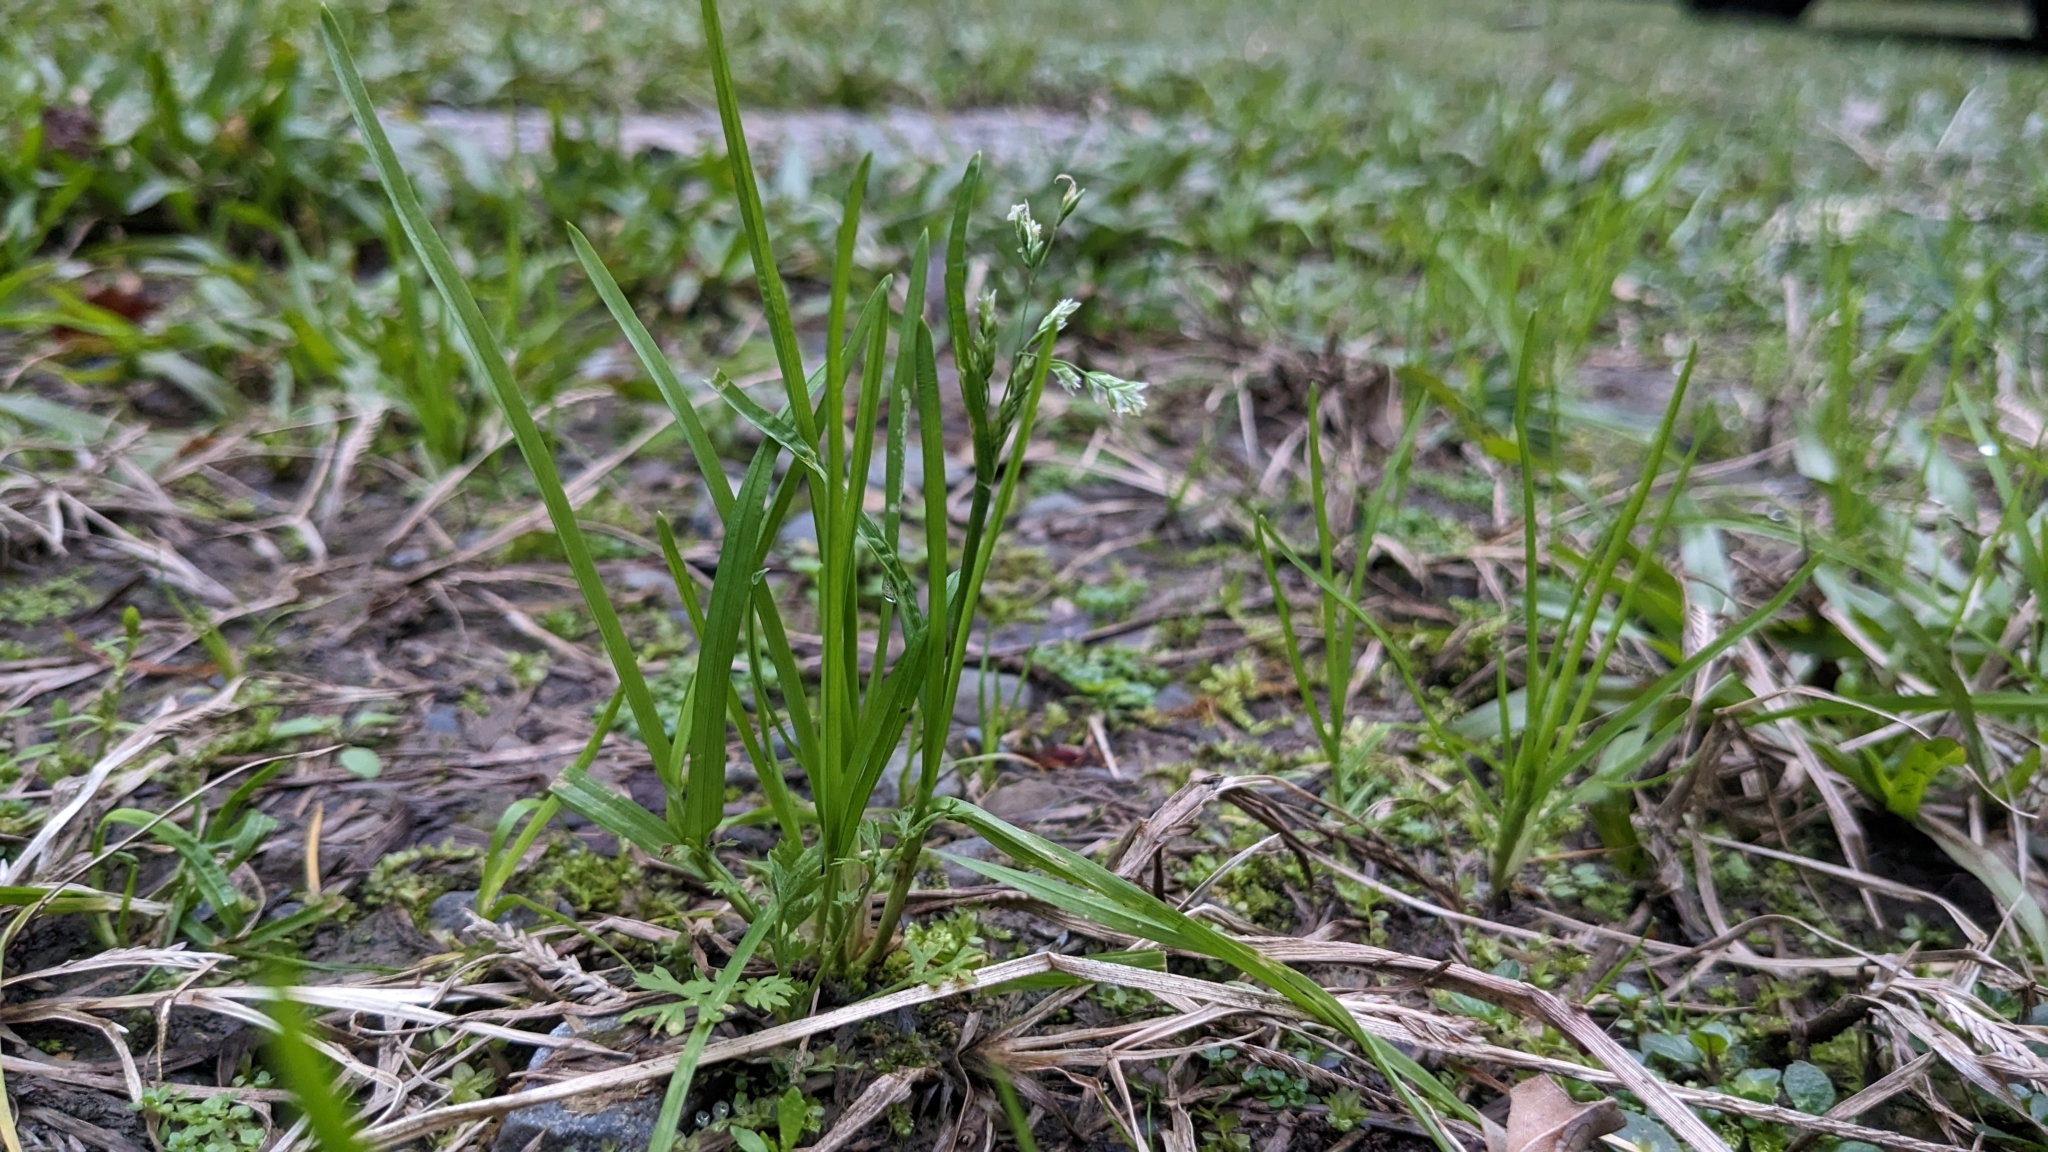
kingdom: Plantae
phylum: Tracheophyta
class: Liliopsida
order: Poales
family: Poaceae
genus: Poa
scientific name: Poa annua
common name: Annual bluegrass
